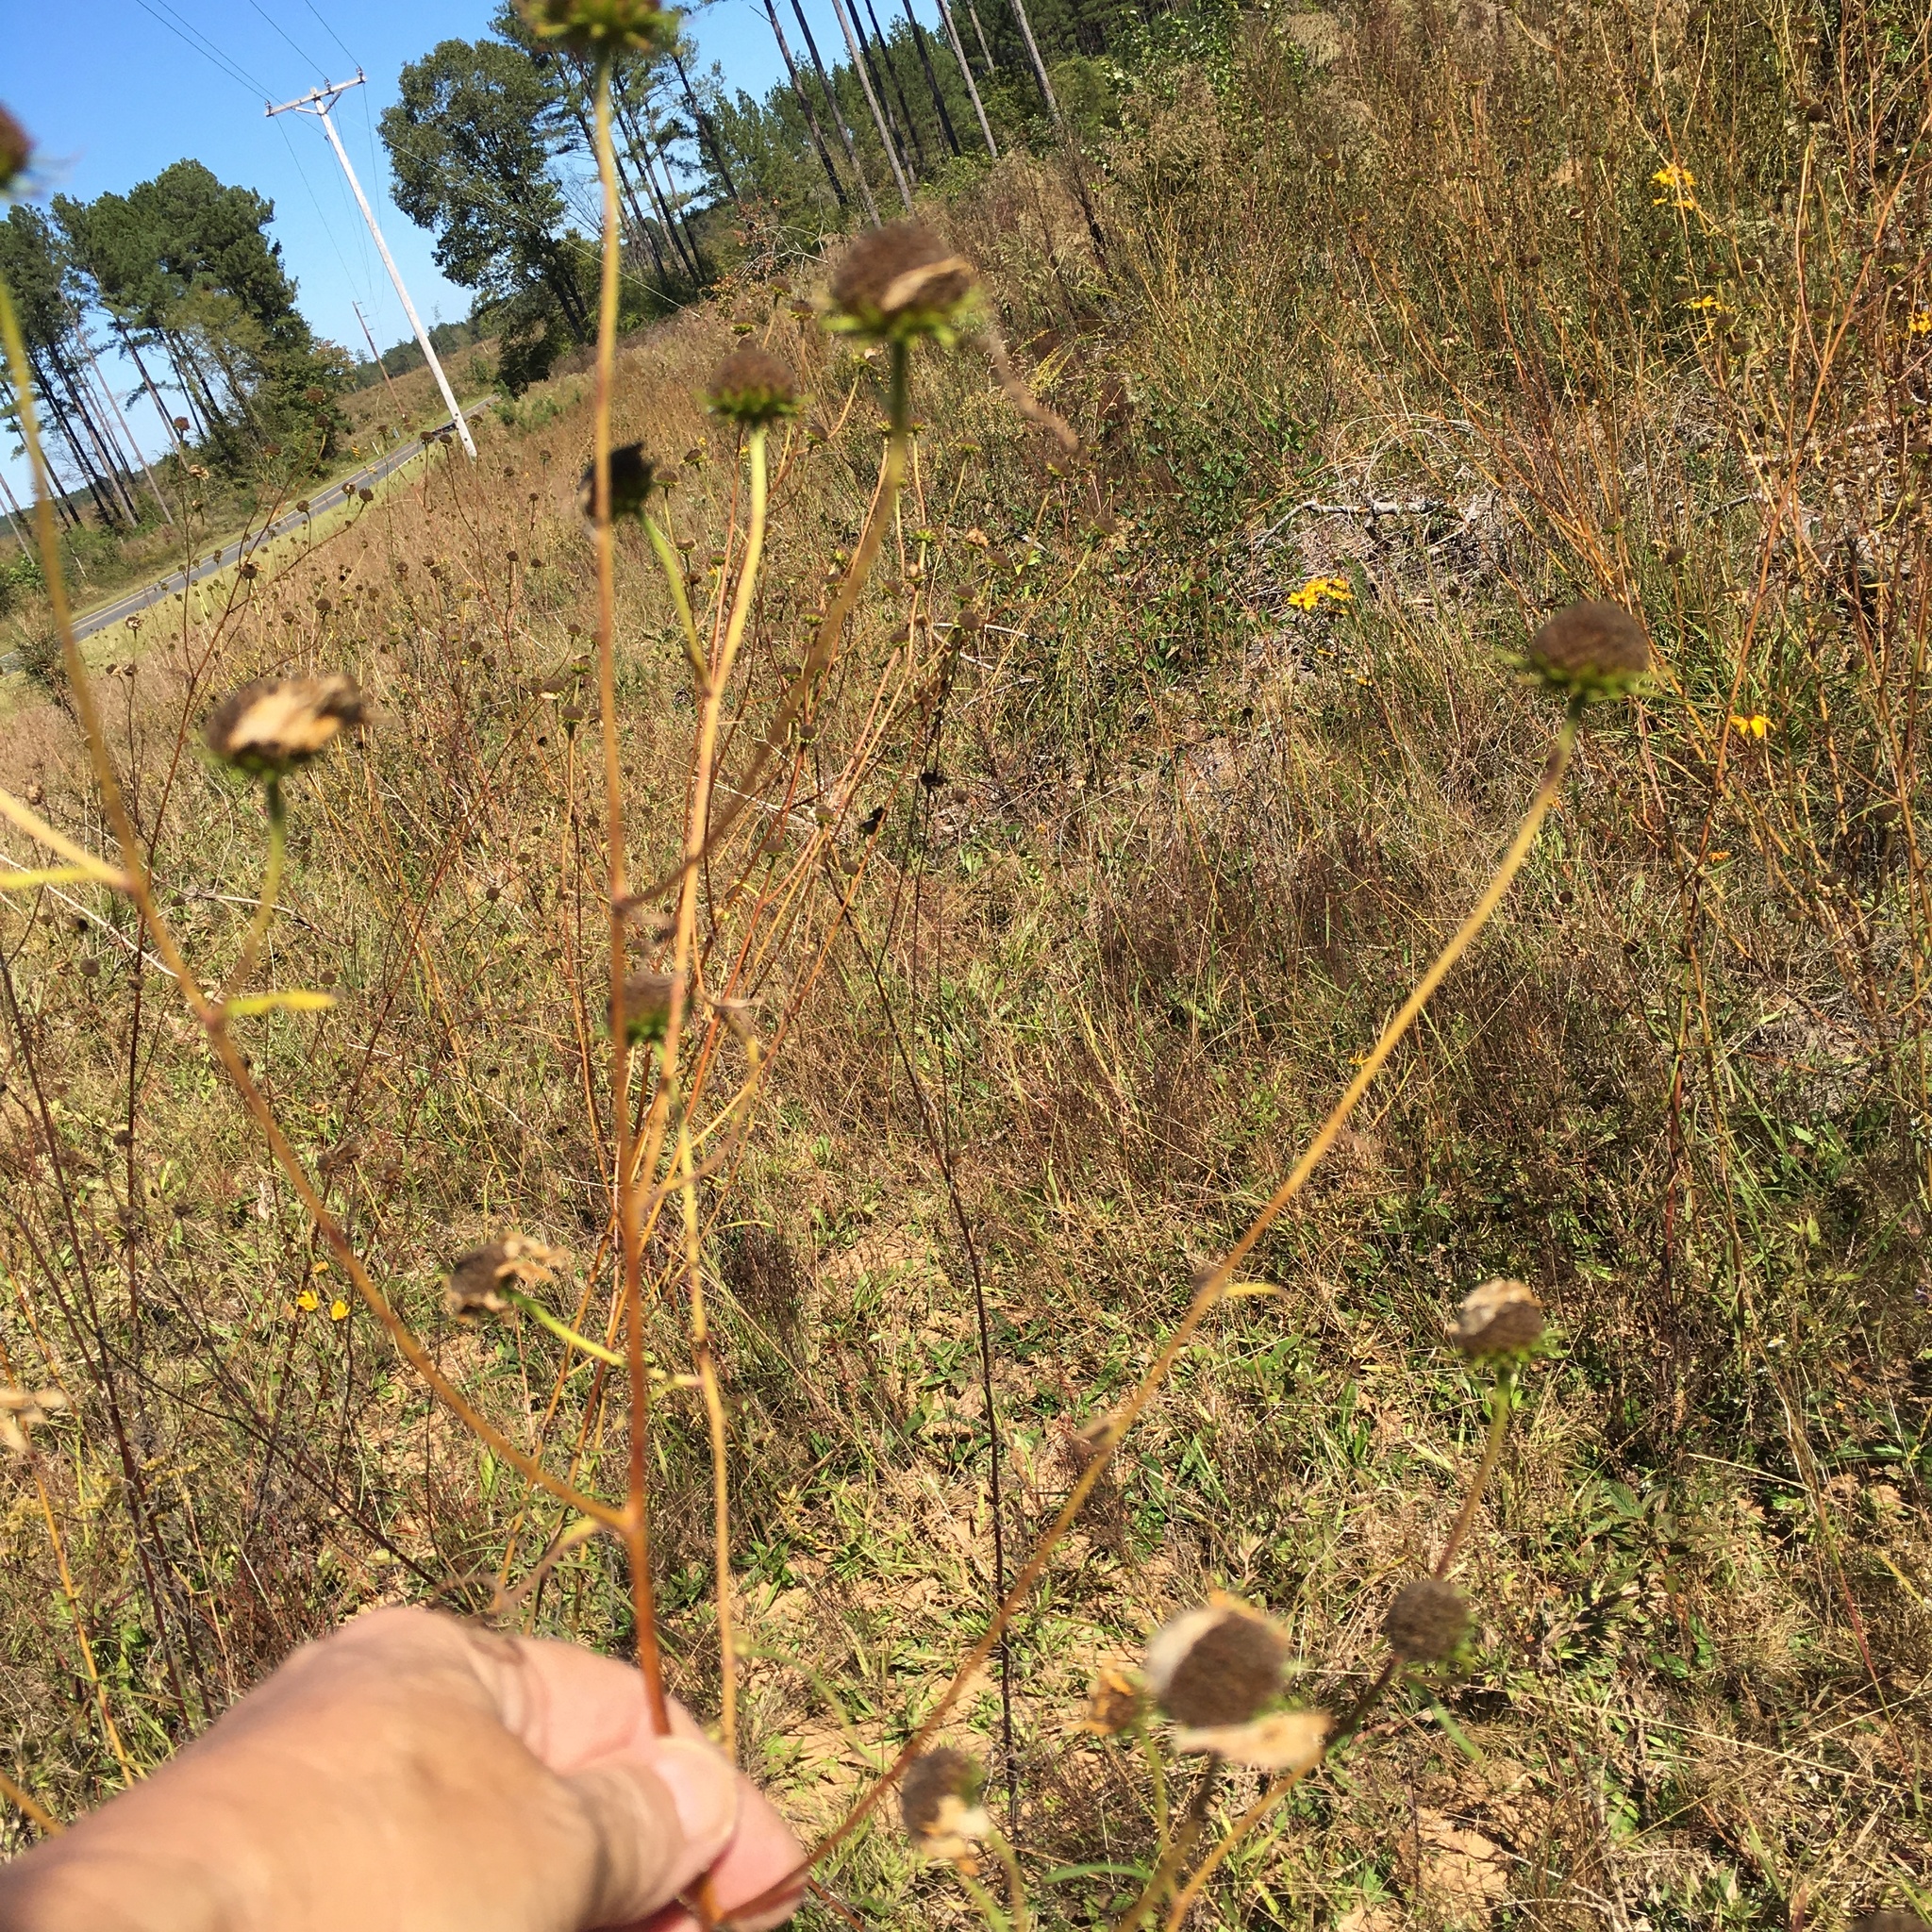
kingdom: Plantae
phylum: Tracheophyta
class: Magnoliopsida
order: Asterales
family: Asteraceae
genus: Helianthus
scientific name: Helianthus angustifolius
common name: Swamp sunflower
